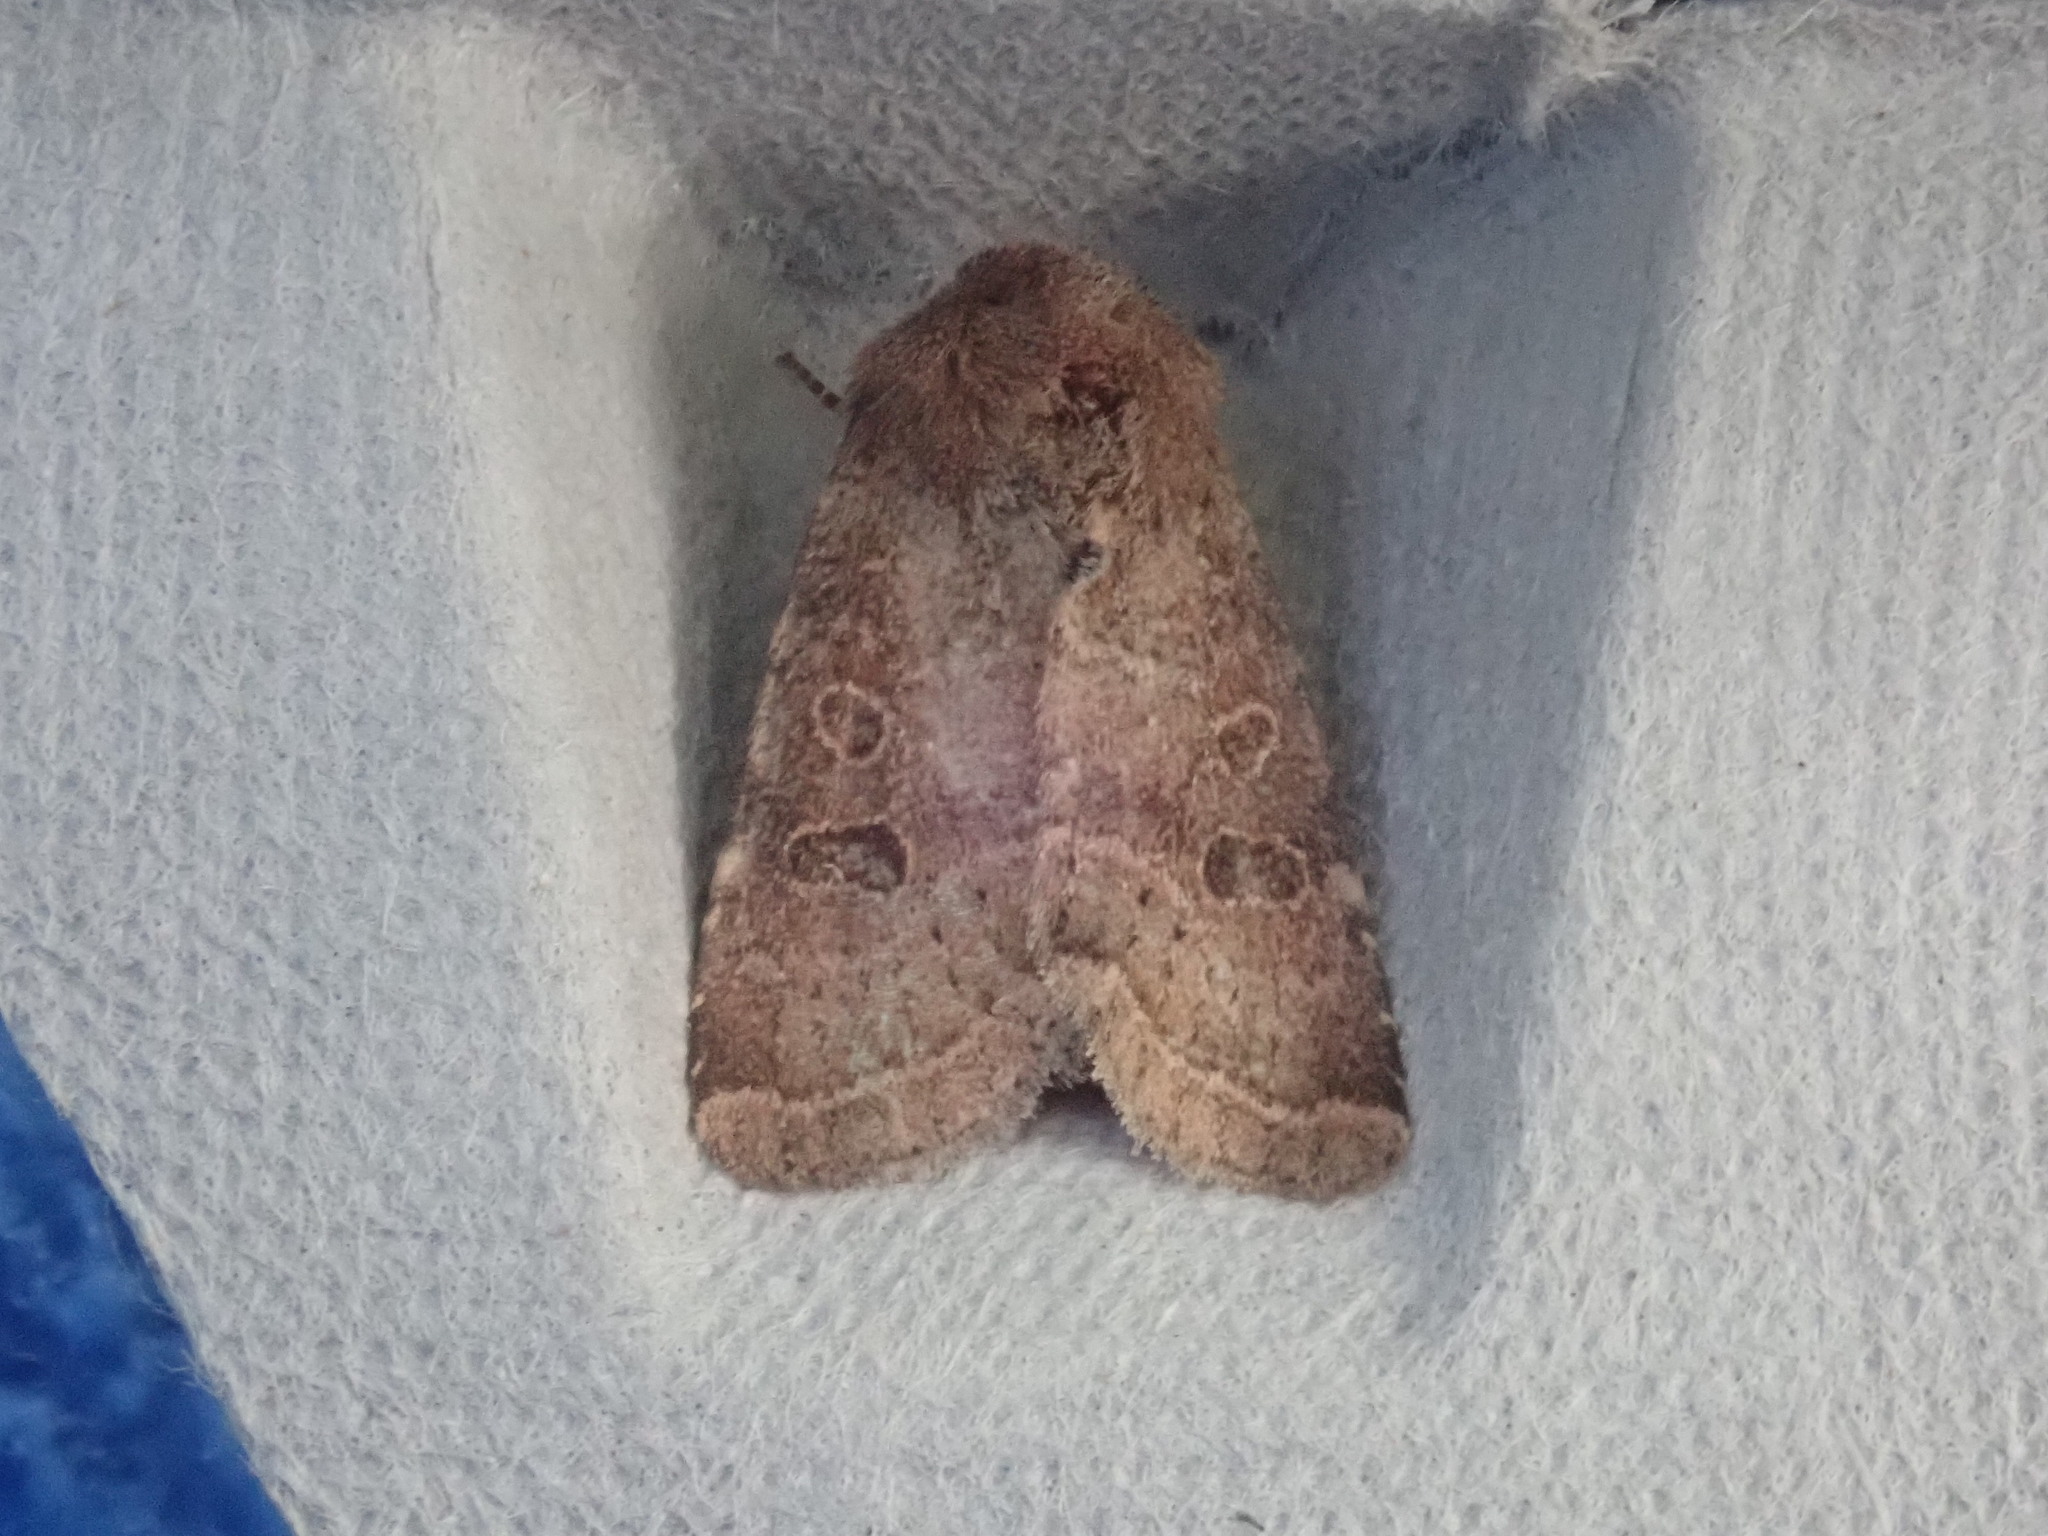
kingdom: Animalia
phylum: Arthropoda
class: Insecta
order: Lepidoptera
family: Noctuidae
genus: Trichopolia
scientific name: Trichopolia
